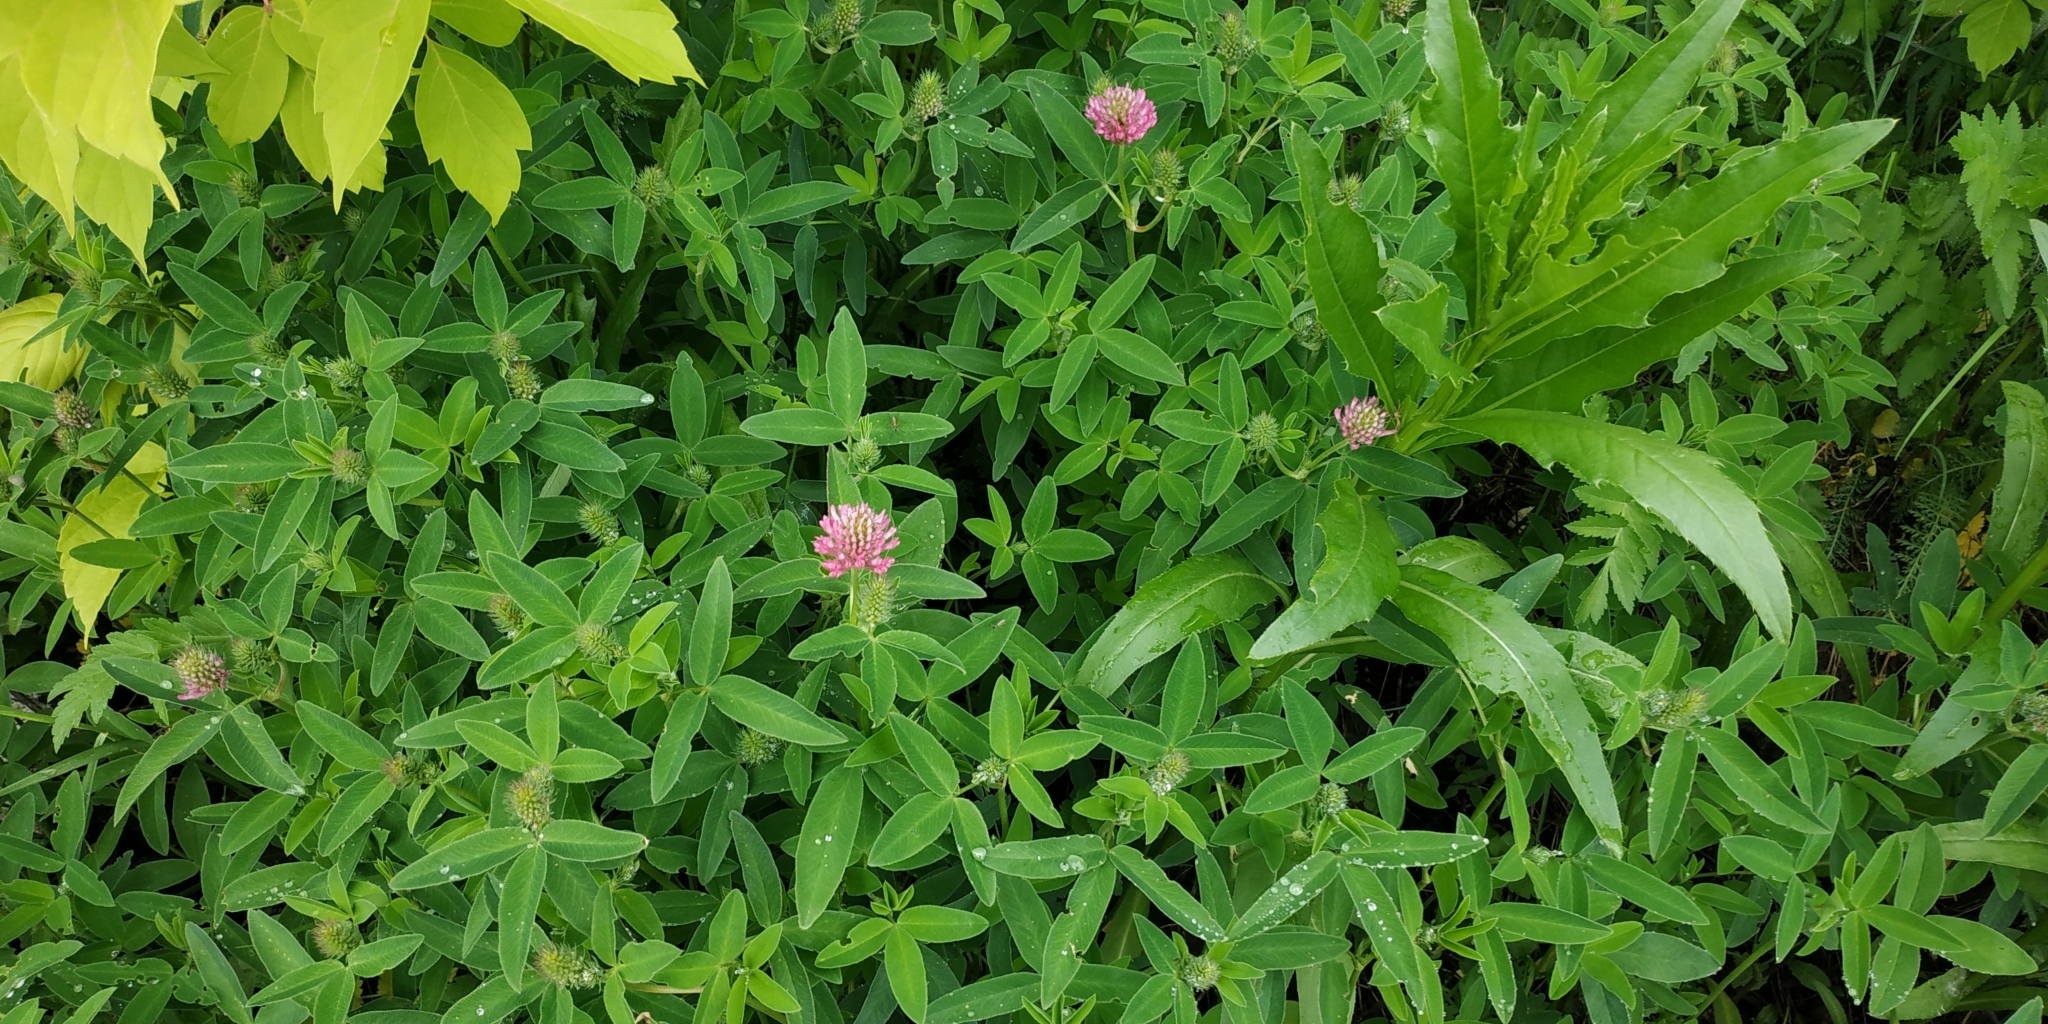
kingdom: Plantae
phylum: Tracheophyta
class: Magnoliopsida
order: Fabales
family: Fabaceae
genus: Trifolium
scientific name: Trifolium medium
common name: Zigzag clover
